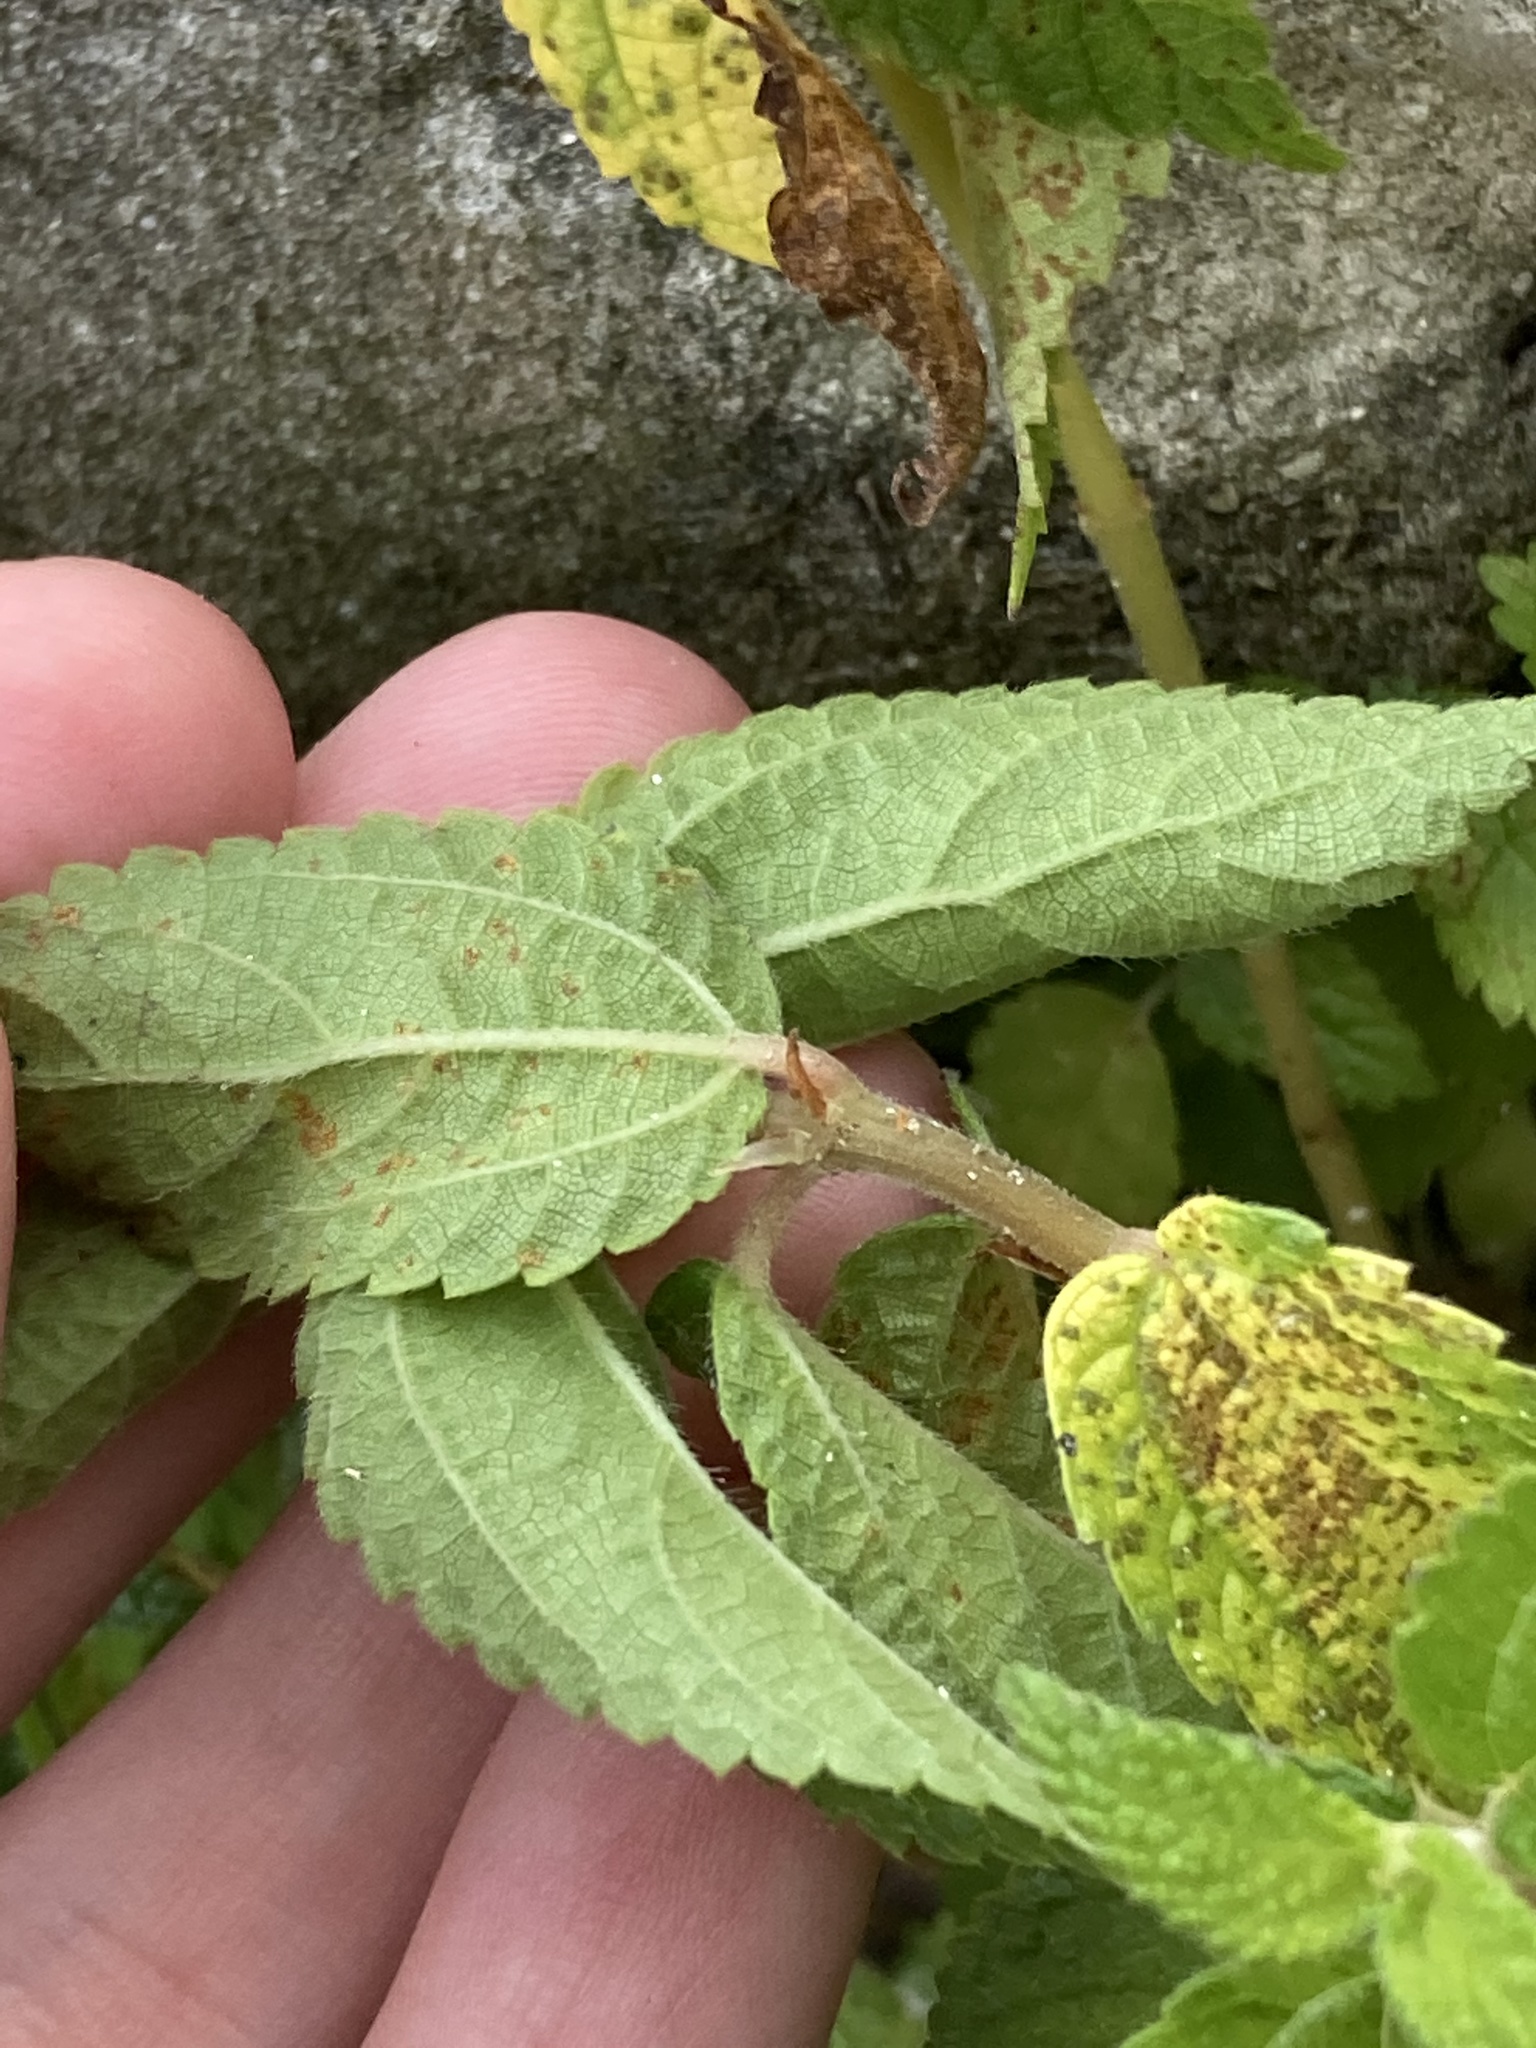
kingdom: Plantae
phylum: Tracheophyta
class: Magnoliopsida
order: Rosales
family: Urticaceae
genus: Boehmeria
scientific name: Boehmeria cylindrica
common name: Bog-hemp
